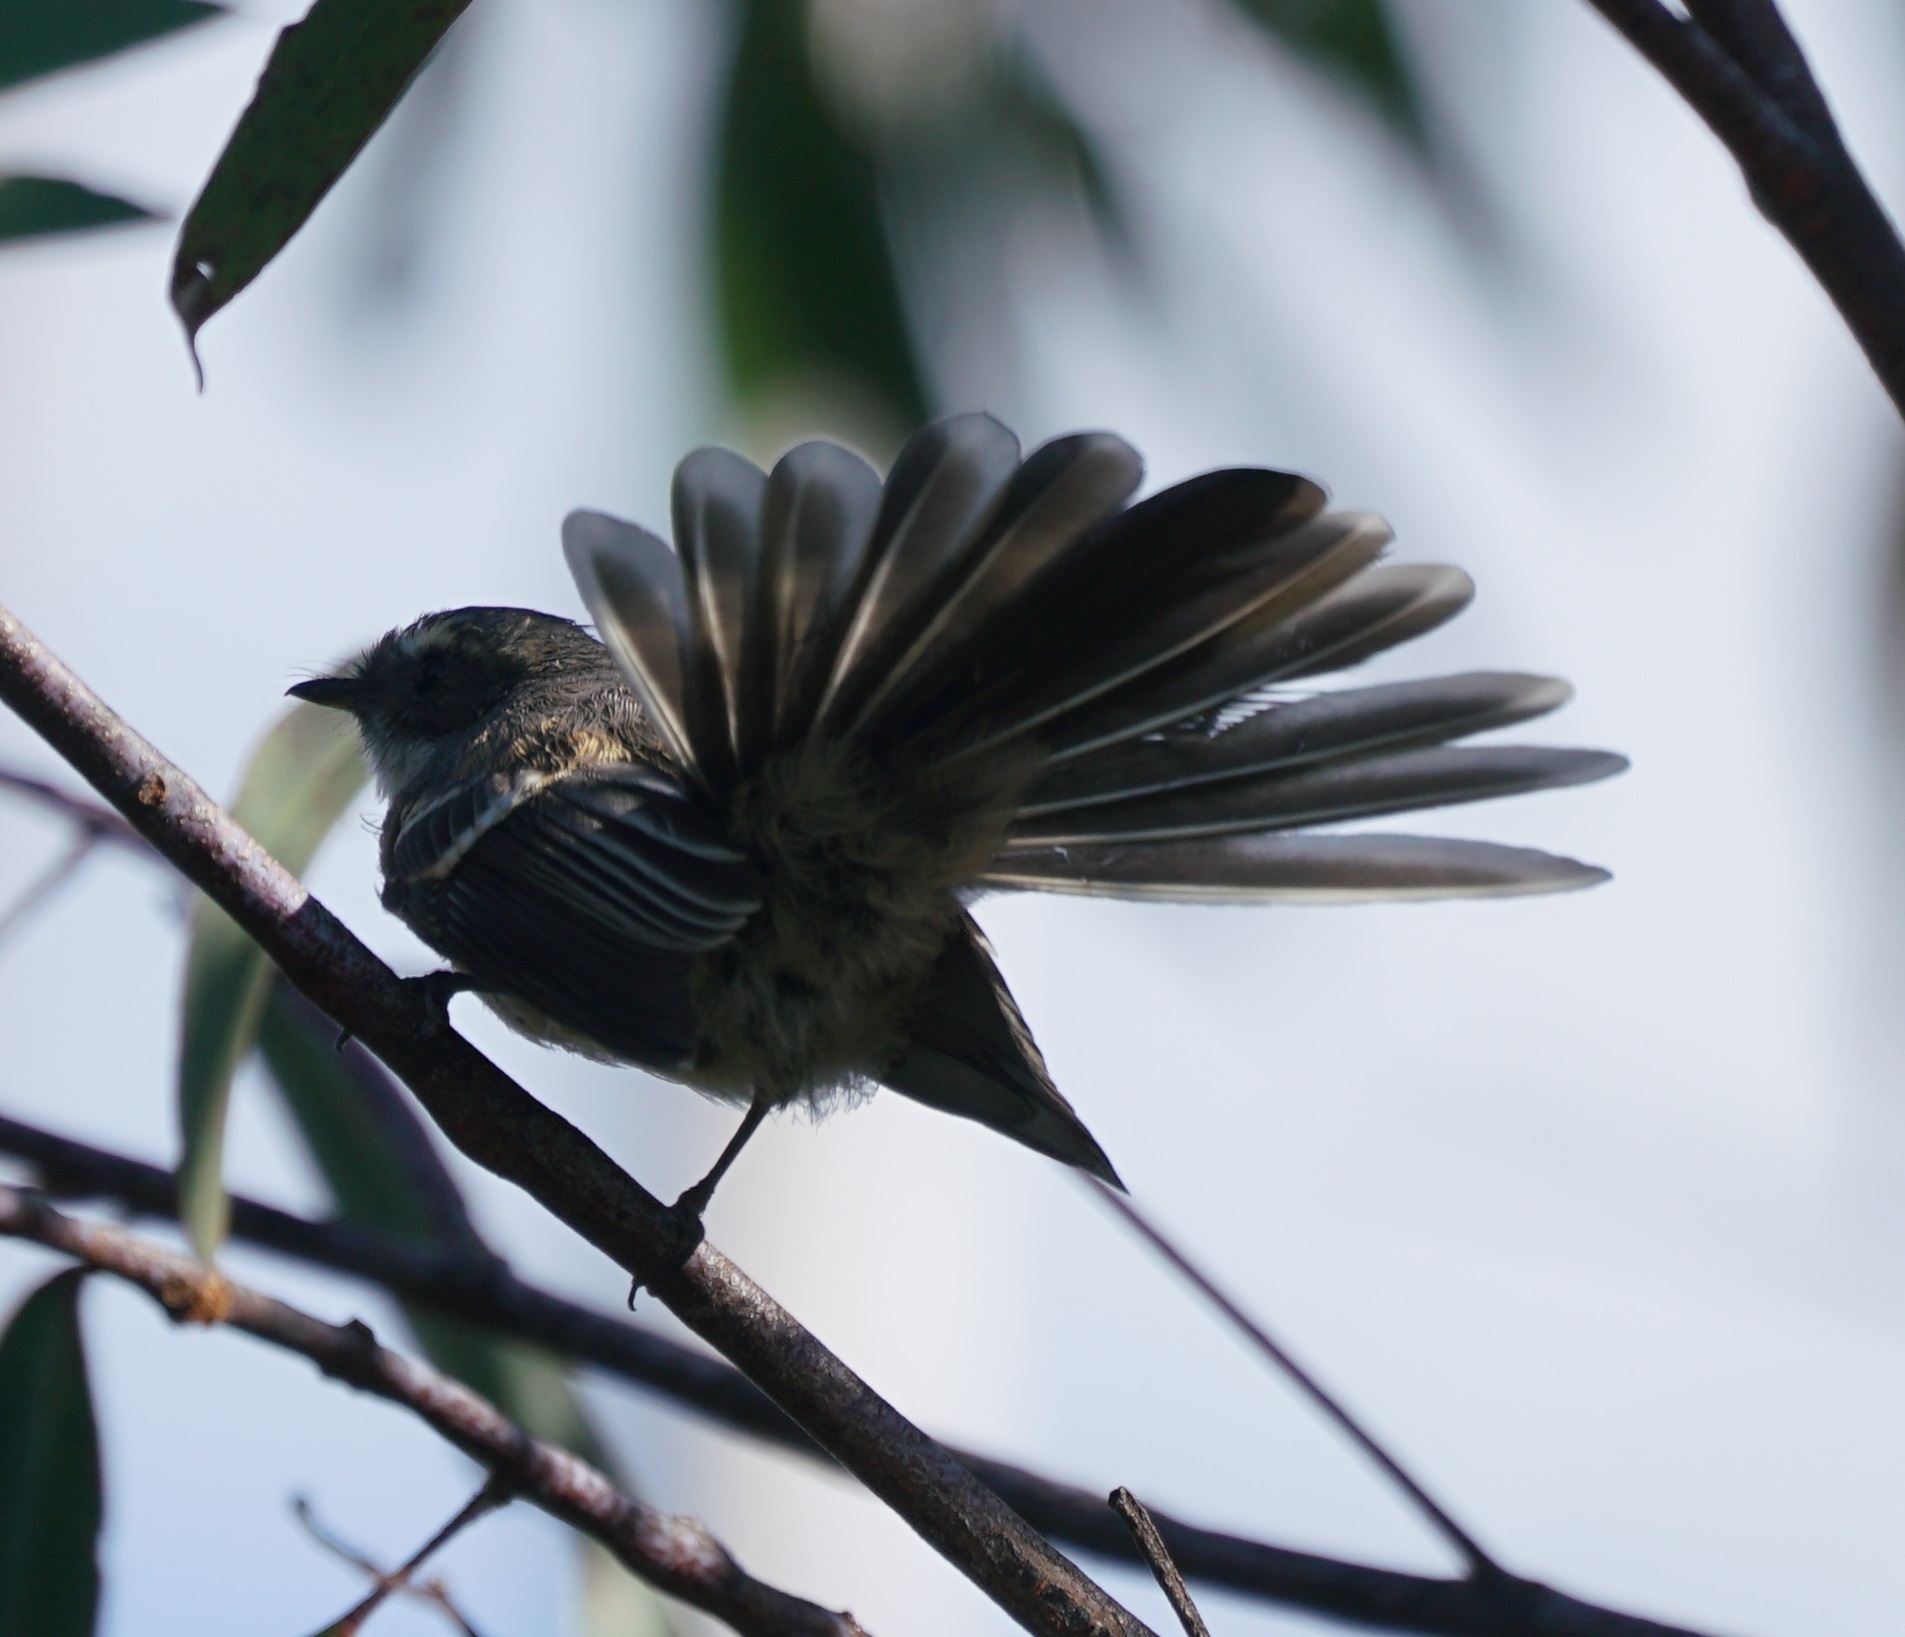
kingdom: Animalia
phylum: Chordata
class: Aves
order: Passeriformes
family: Rhipiduridae
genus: Rhipidura
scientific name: Rhipidura albiscapa
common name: Grey fantail
